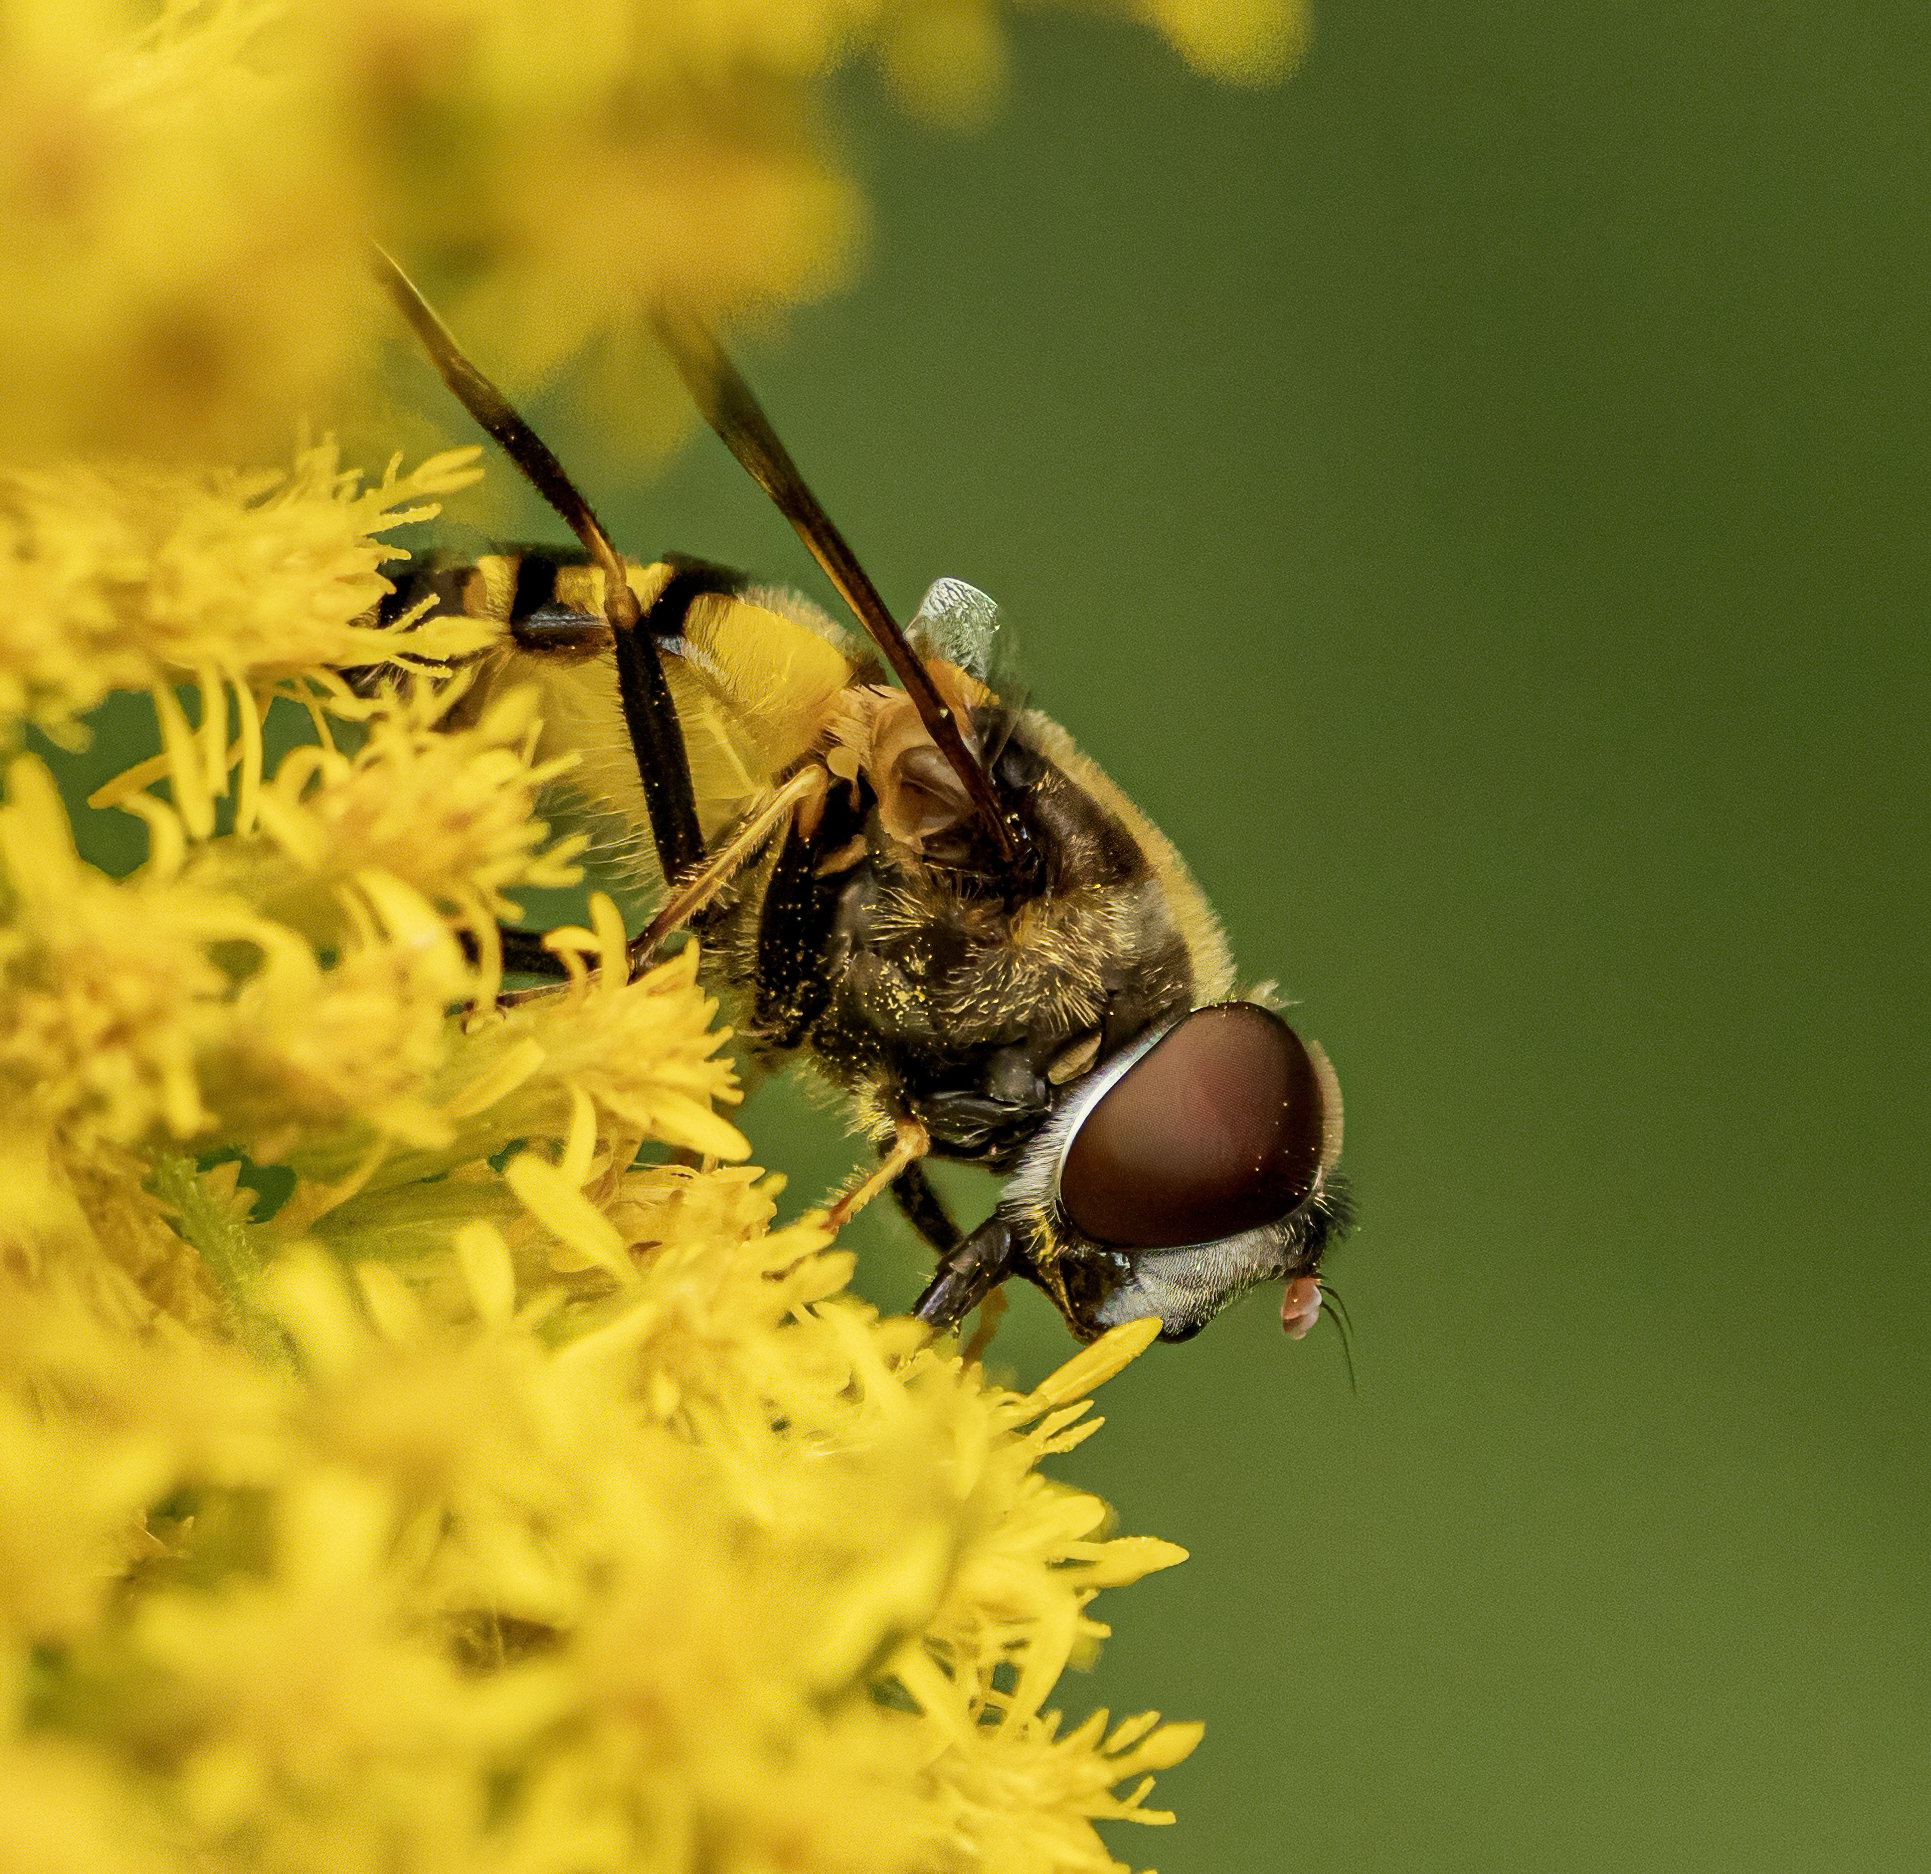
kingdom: Animalia
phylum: Arthropoda
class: Insecta
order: Diptera
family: Syrphidae
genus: Eristalis
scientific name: Eristalis transversa
